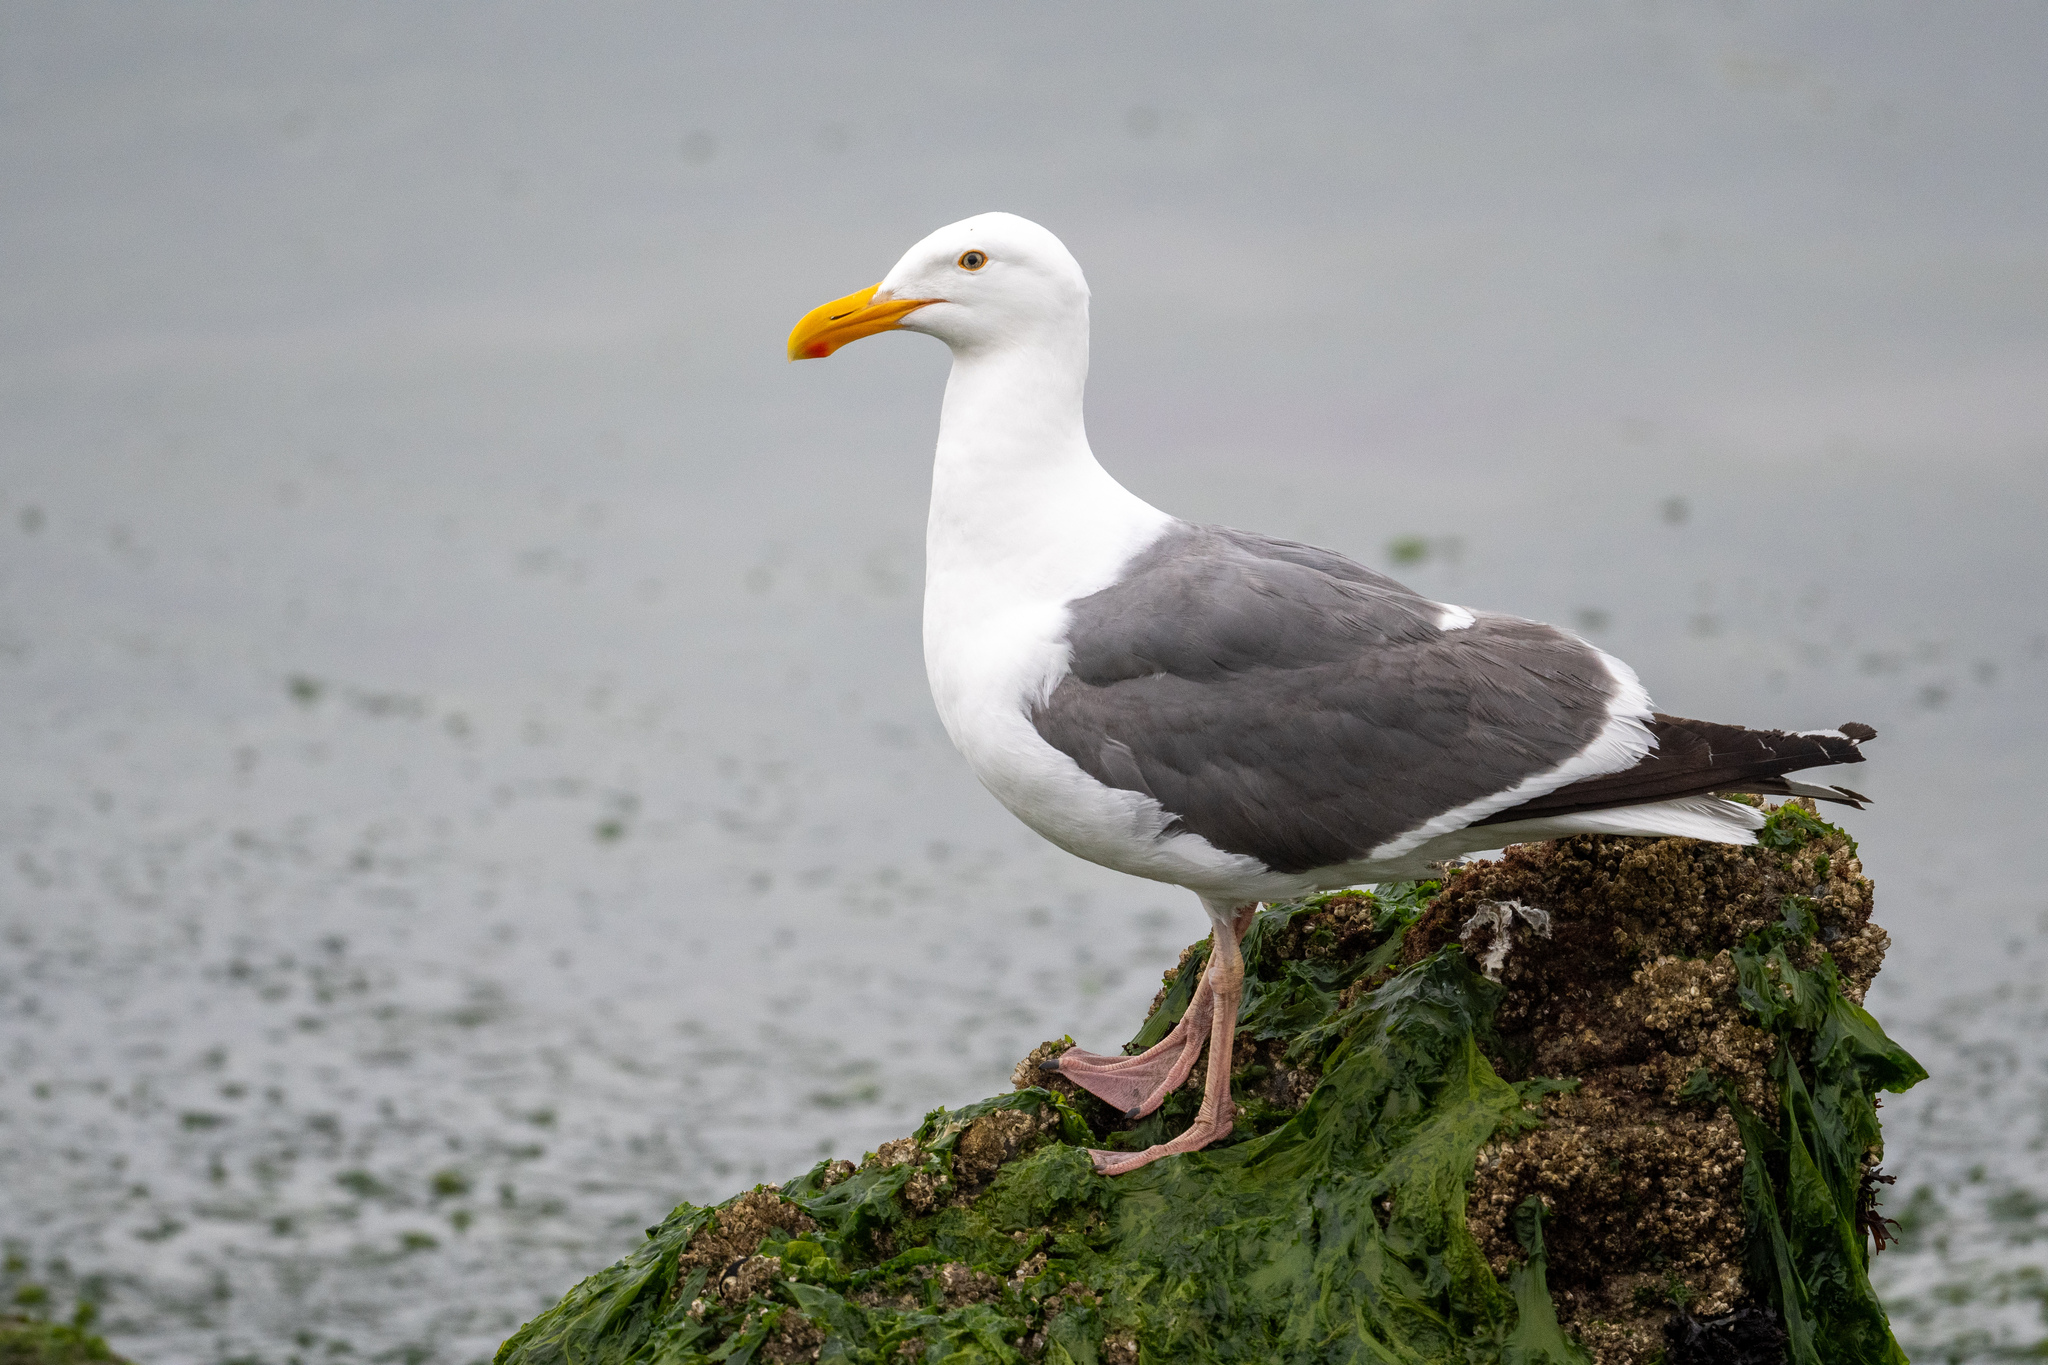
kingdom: Animalia
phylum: Chordata
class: Aves
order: Charadriiformes
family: Laridae
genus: Larus
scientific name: Larus occidentalis
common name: Western gull
